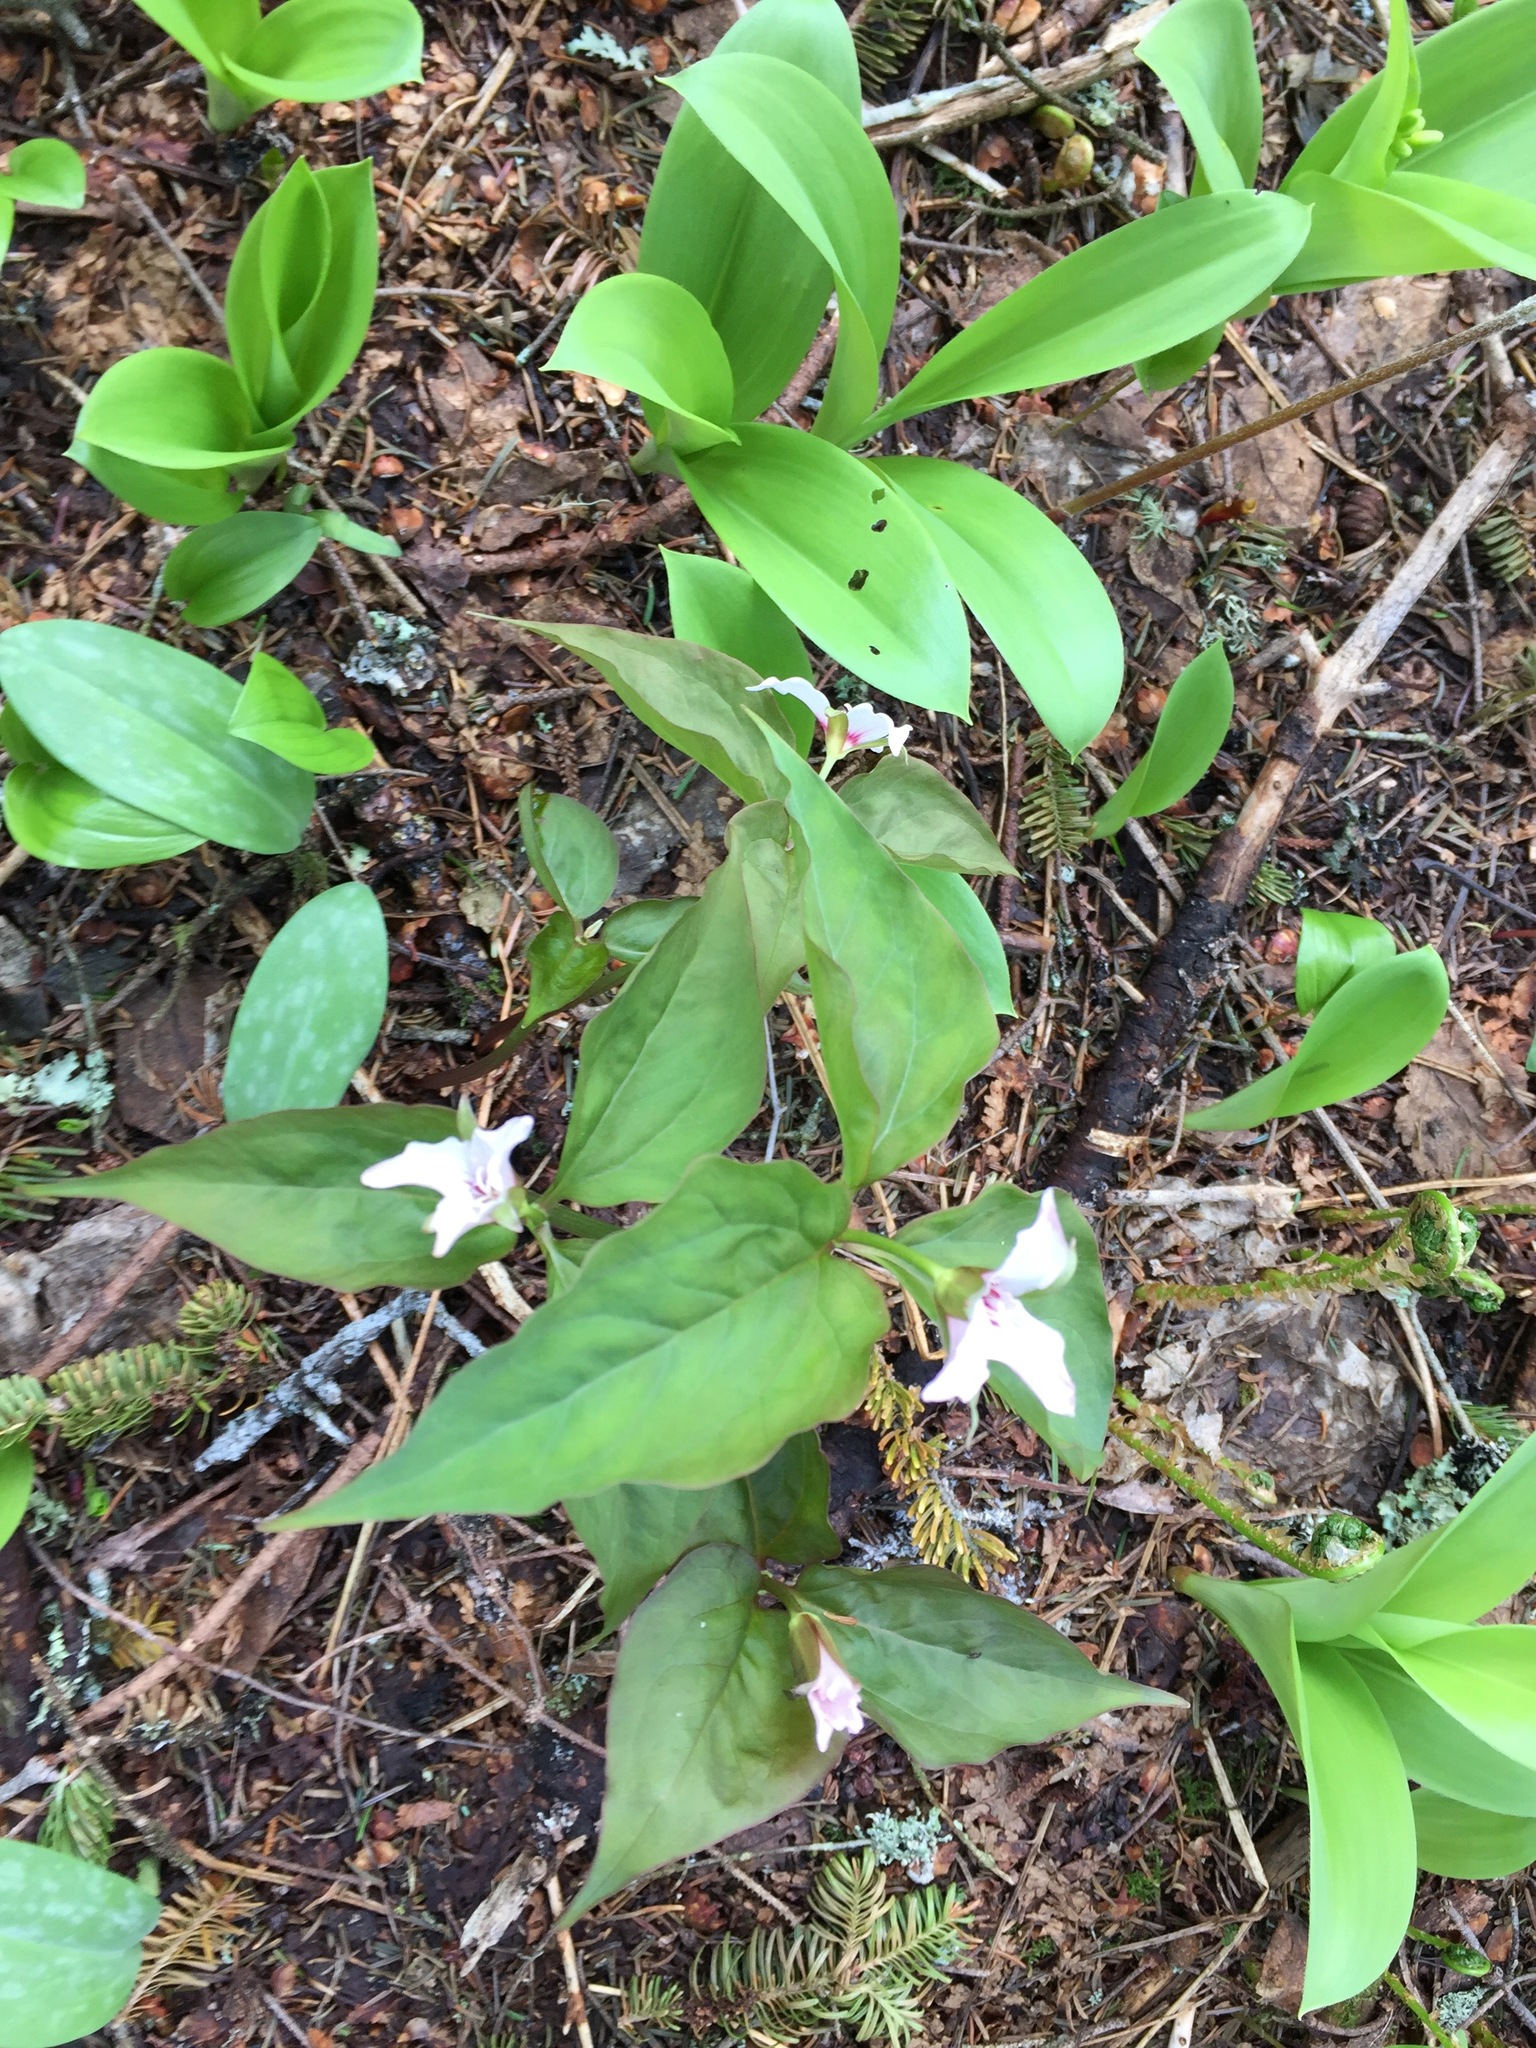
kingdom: Plantae
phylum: Tracheophyta
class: Liliopsida
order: Liliales
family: Melanthiaceae
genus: Trillium
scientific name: Trillium undulatum
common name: Paint trillium
